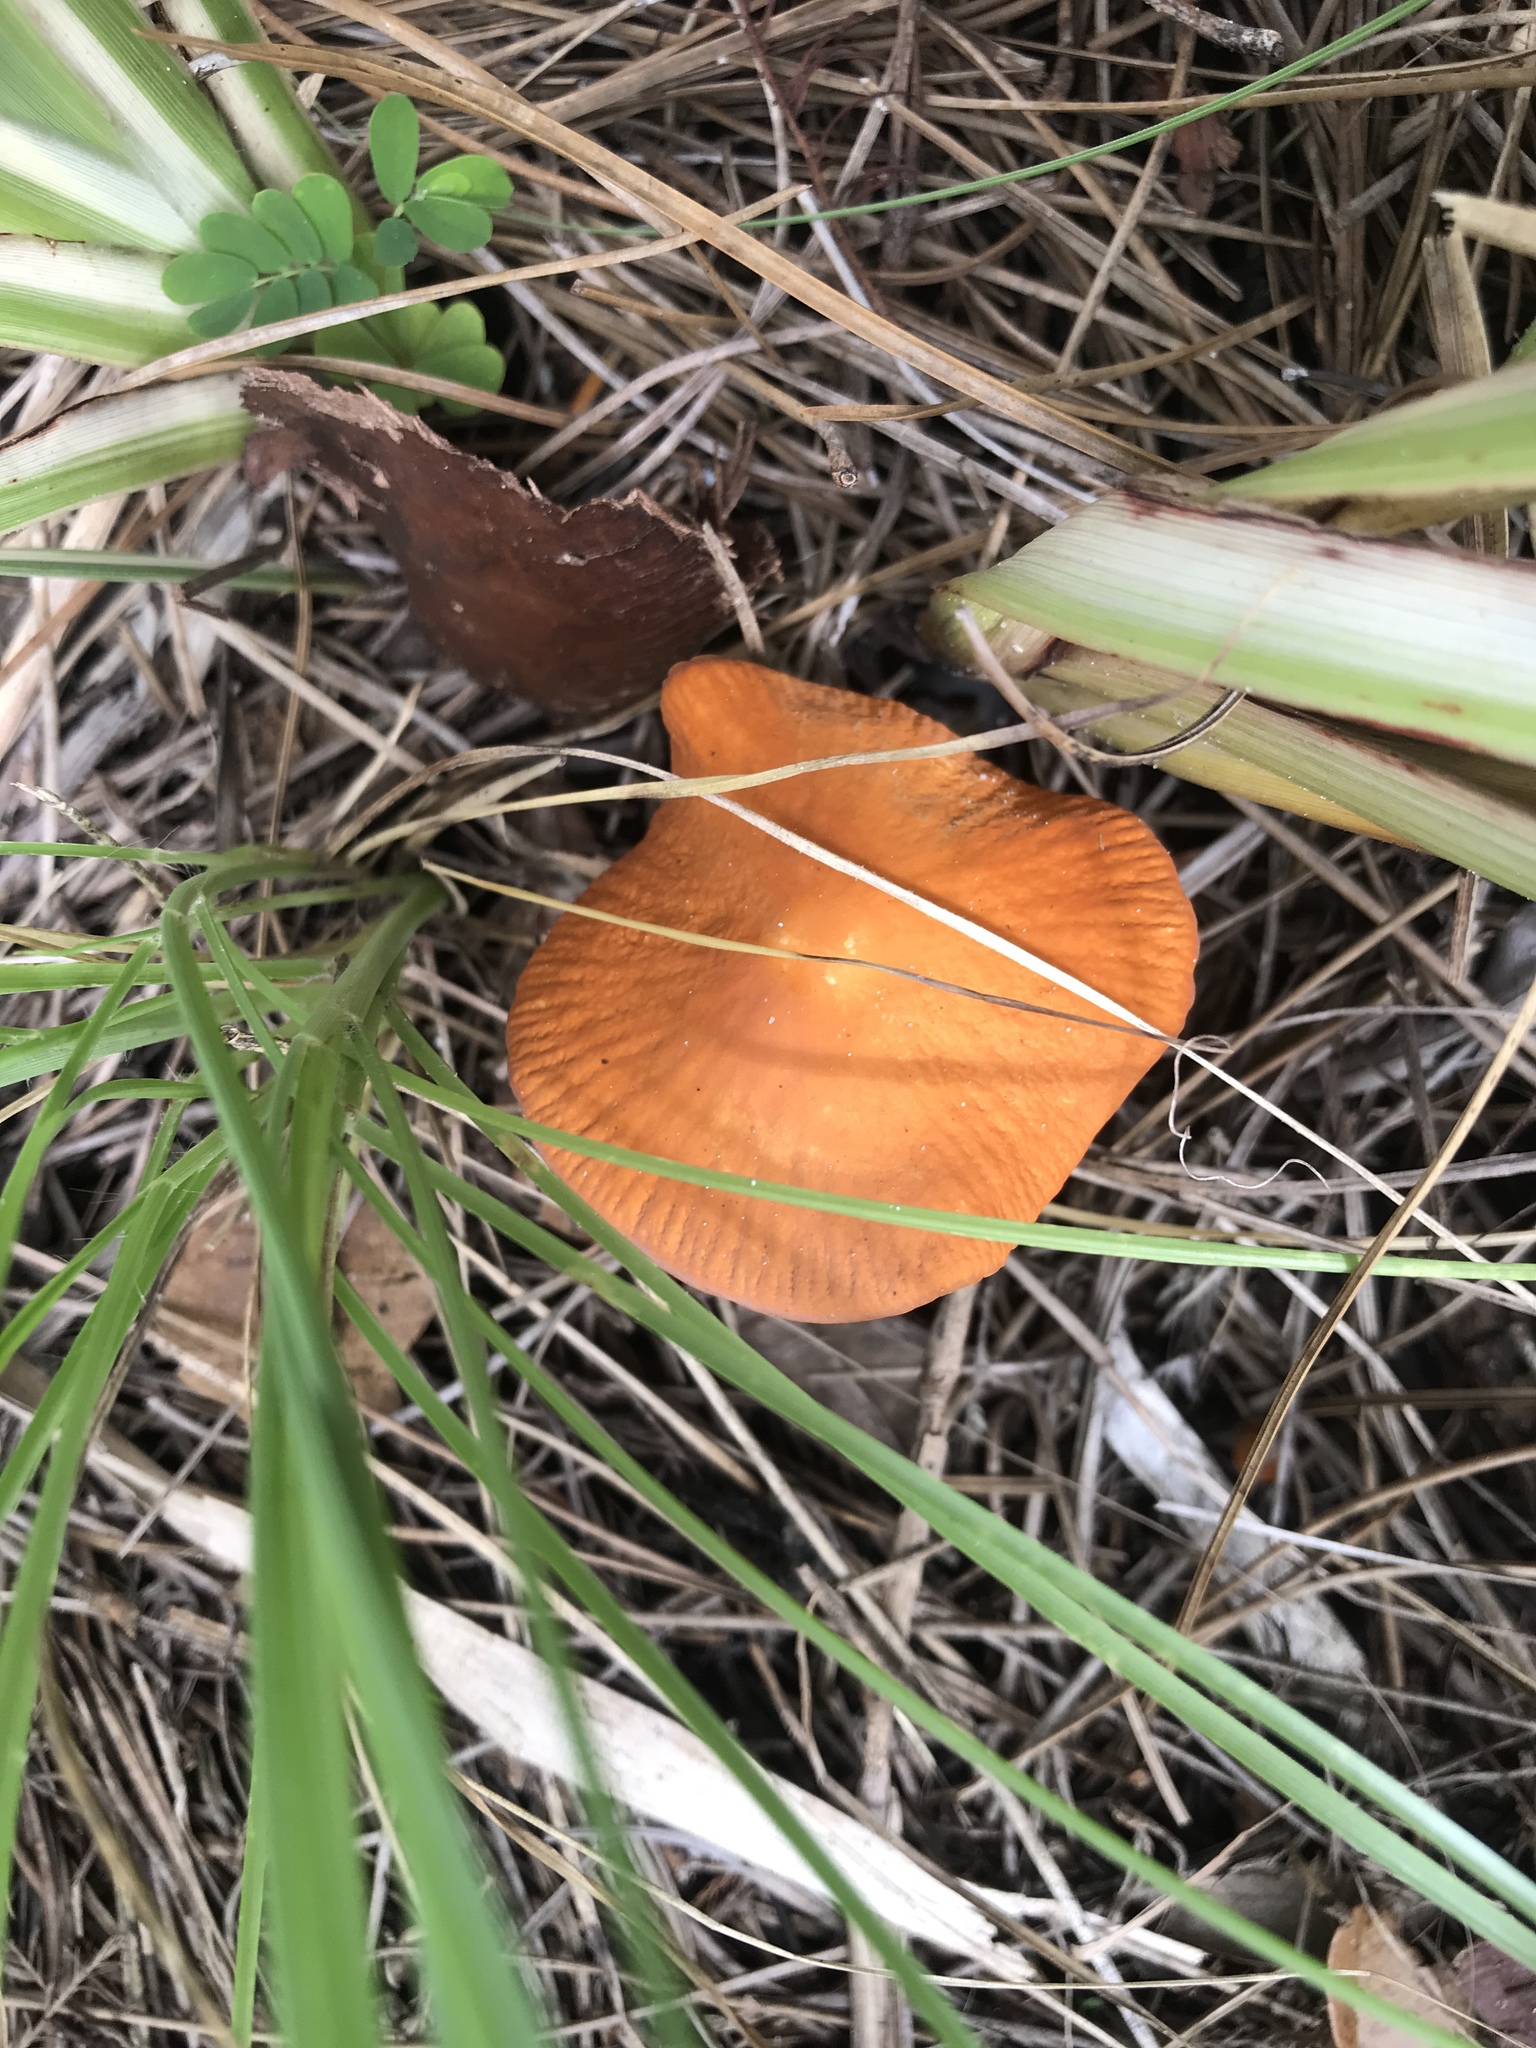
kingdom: Fungi
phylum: Basidiomycota
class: Agaricomycetes
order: Agaricales
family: Marasmiaceae
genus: Marasmius
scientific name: Marasmius vagus
